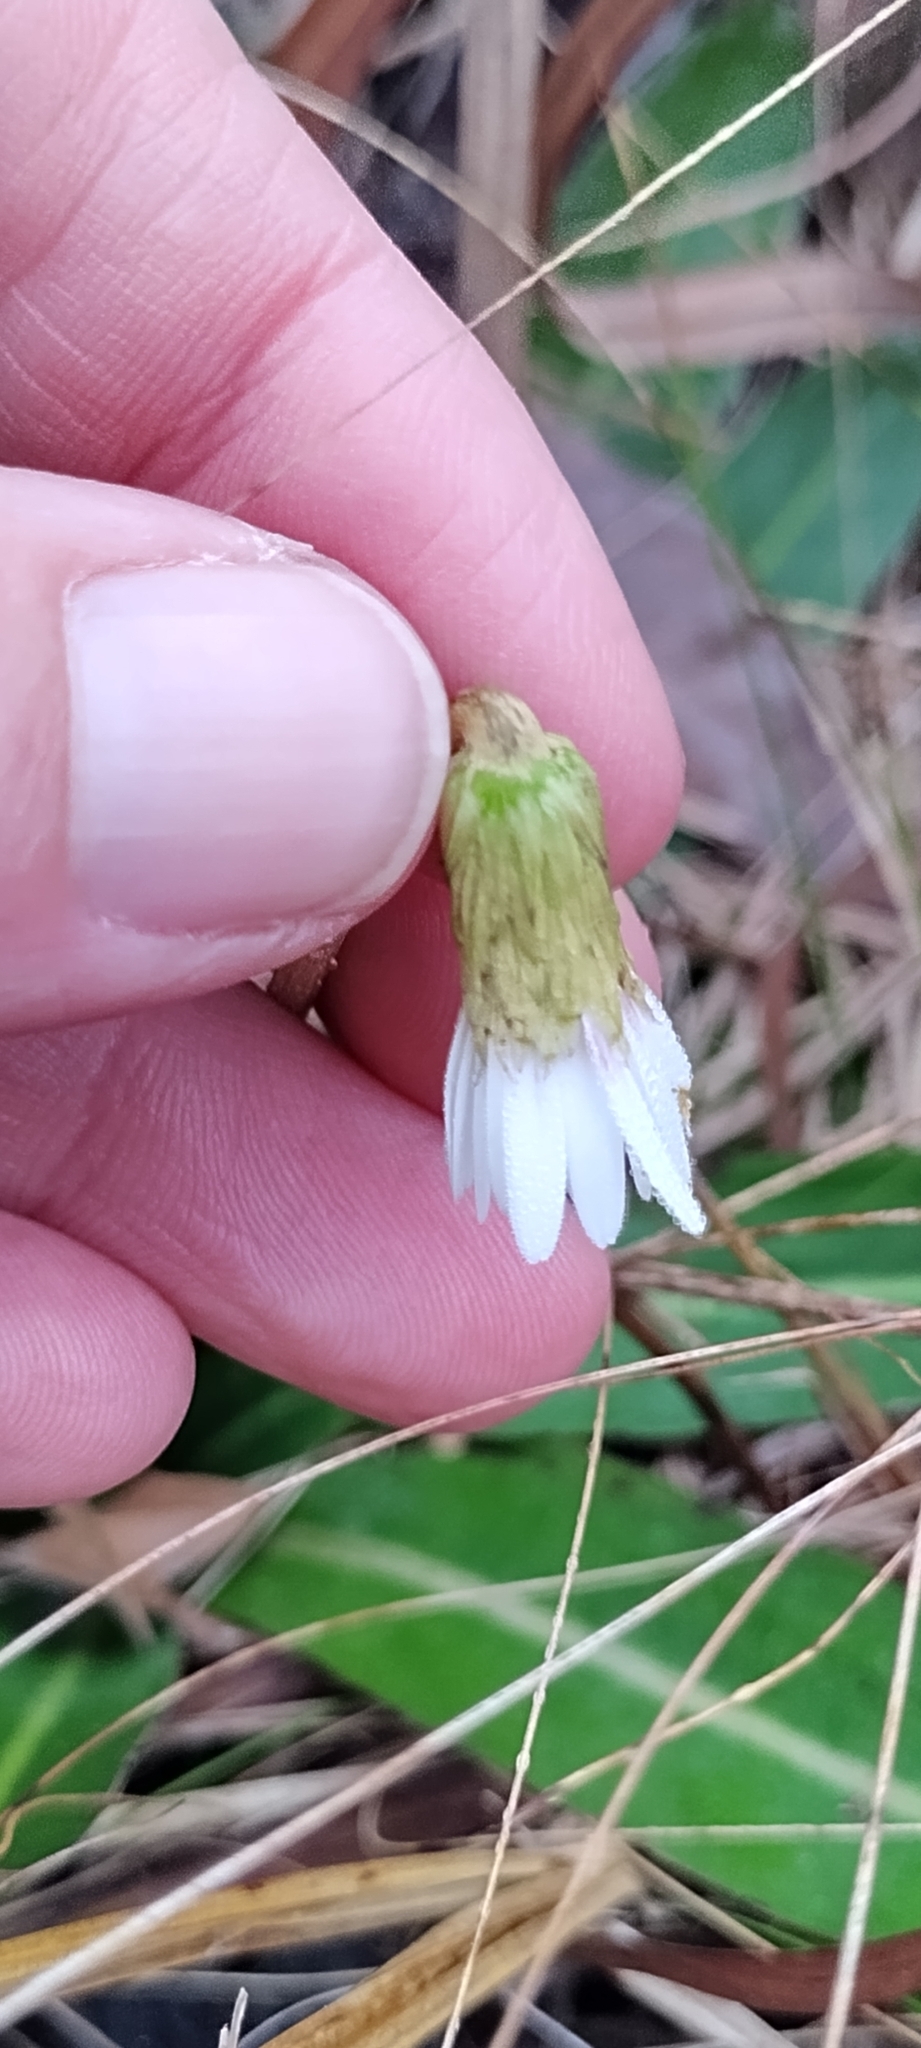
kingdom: Plantae
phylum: Tracheophyta
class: Magnoliopsida
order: Asterales
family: Asteraceae
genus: Chaptalia
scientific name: Chaptalia tomentosa
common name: Woolly sunbonnet
